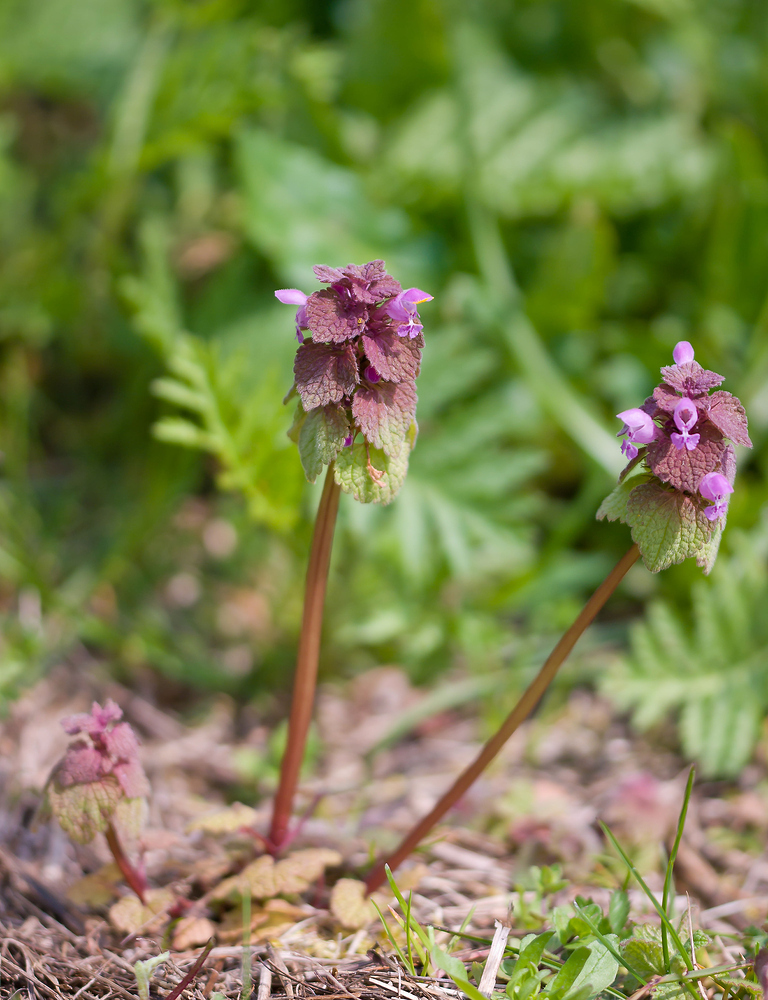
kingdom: Plantae
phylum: Tracheophyta
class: Magnoliopsida
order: Lamiales
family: Lamiaceae
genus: Lamium
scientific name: Lamium purpureum
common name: Red dead-nettle
